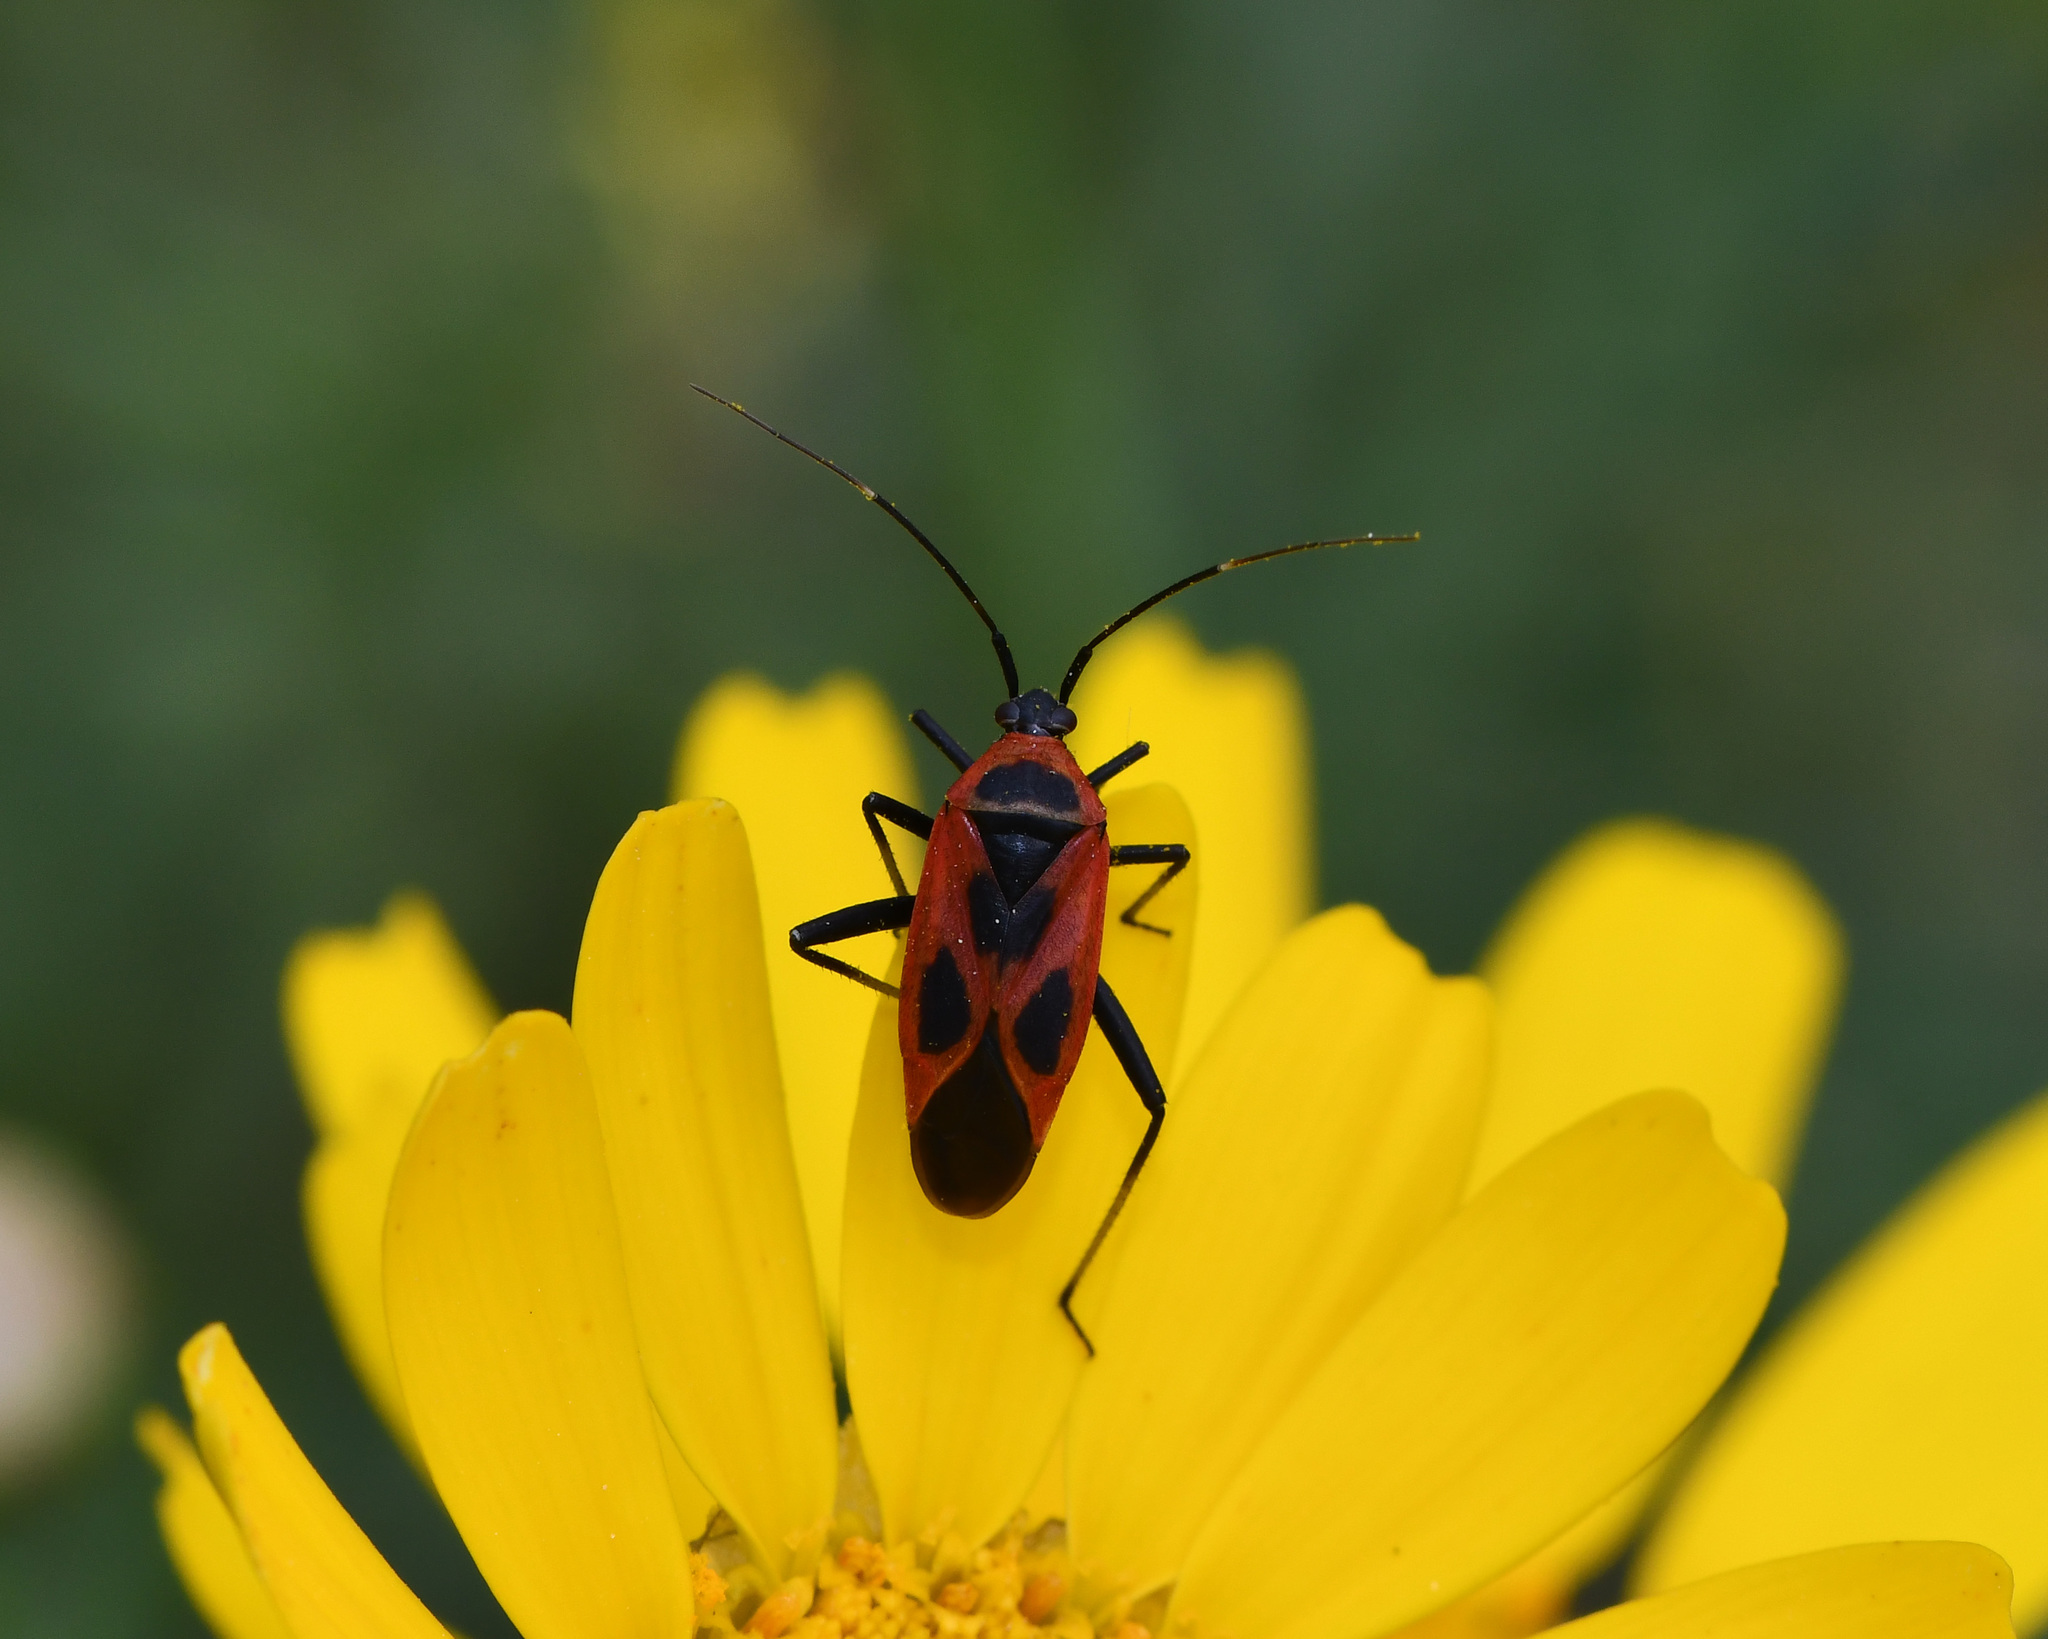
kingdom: Animalia
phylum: Arthropoda
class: Insecta
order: Hemiptera
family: Miridae
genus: Calocoris
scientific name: Calocoris nemoralis
